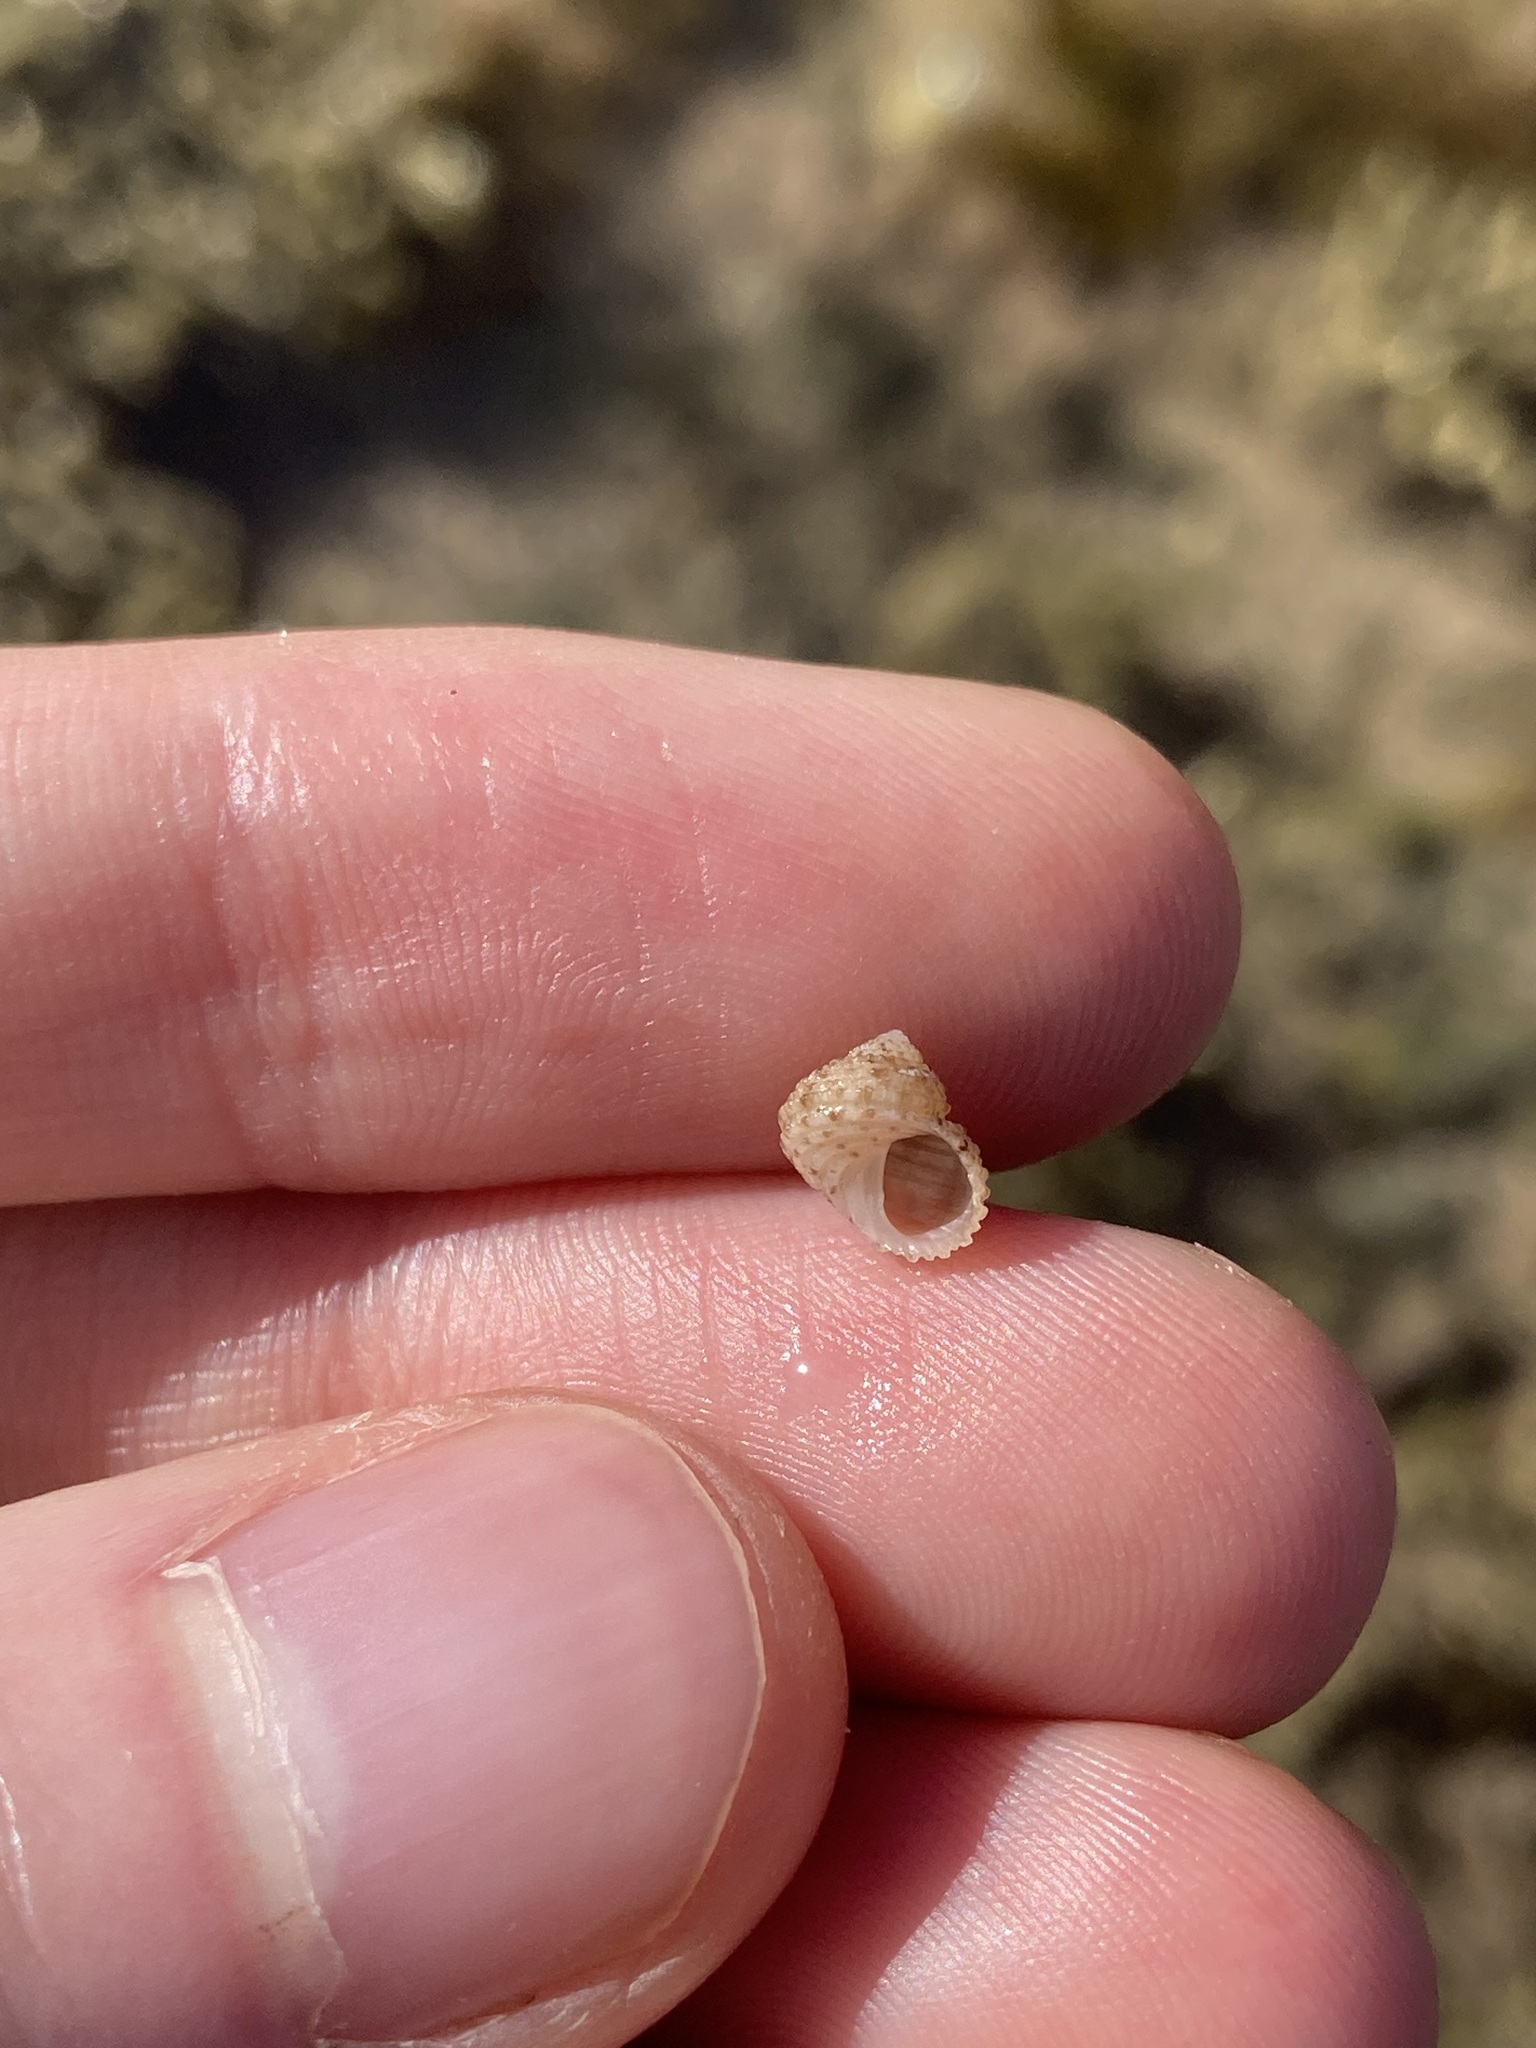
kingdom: Animalia
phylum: Mollusca
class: Gastropoda
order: Seguenziida
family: Chilodontaidae
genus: Herpetopoma
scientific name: Herpetopoma aspersum
